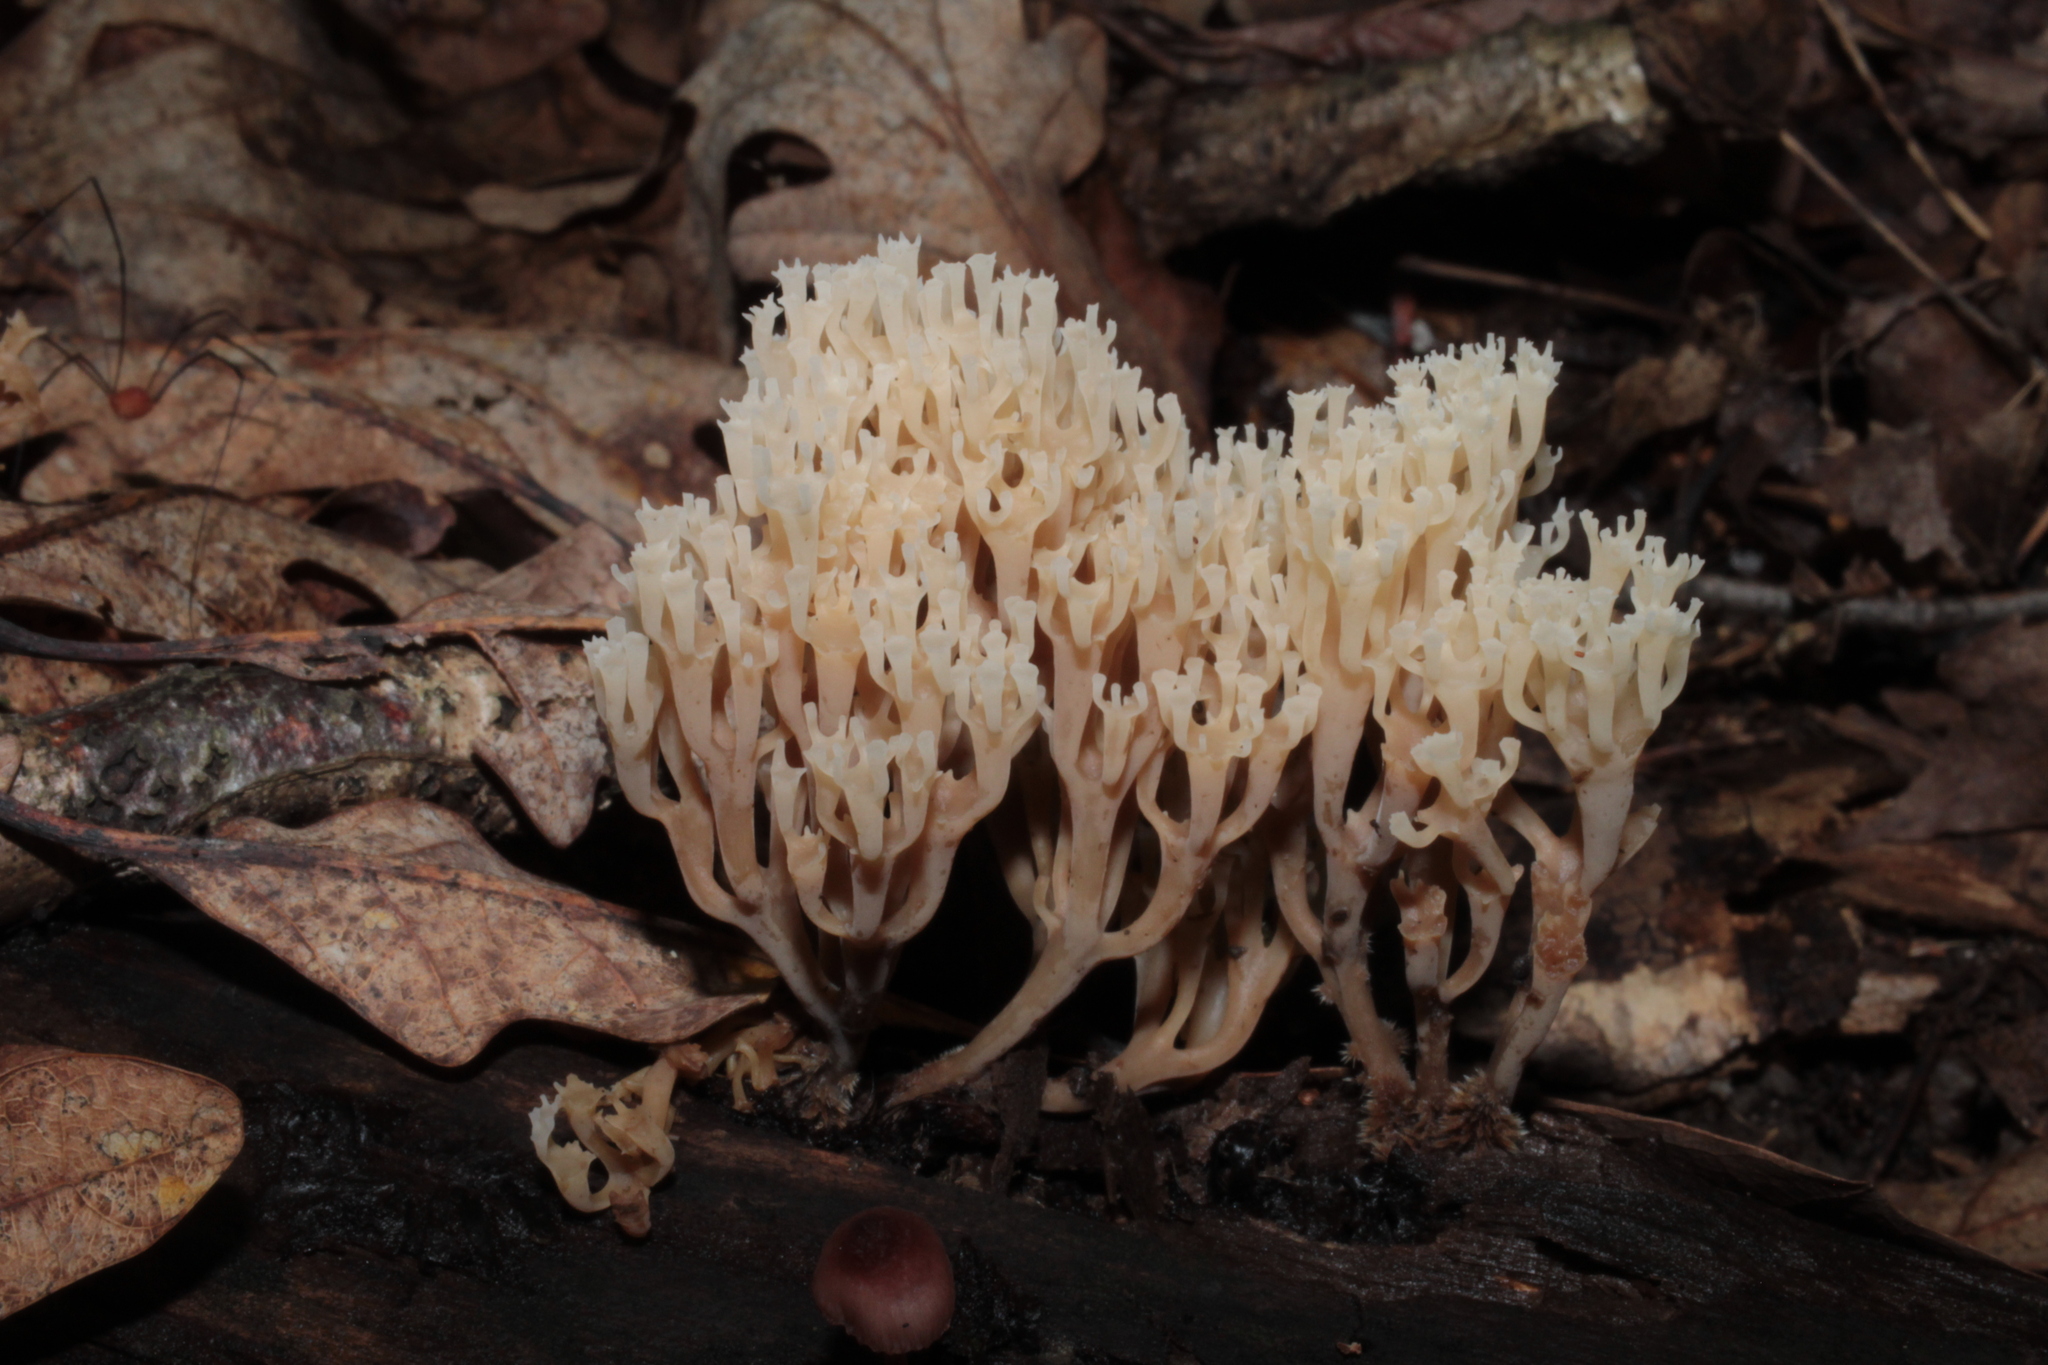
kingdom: Fungi
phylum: Basidiomycota
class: Agaricomycetes
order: Russulales
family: Auriscalpiaceae
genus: Artomyces
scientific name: Artomyces pyxidatus
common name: Crown-tipped coral fungus
